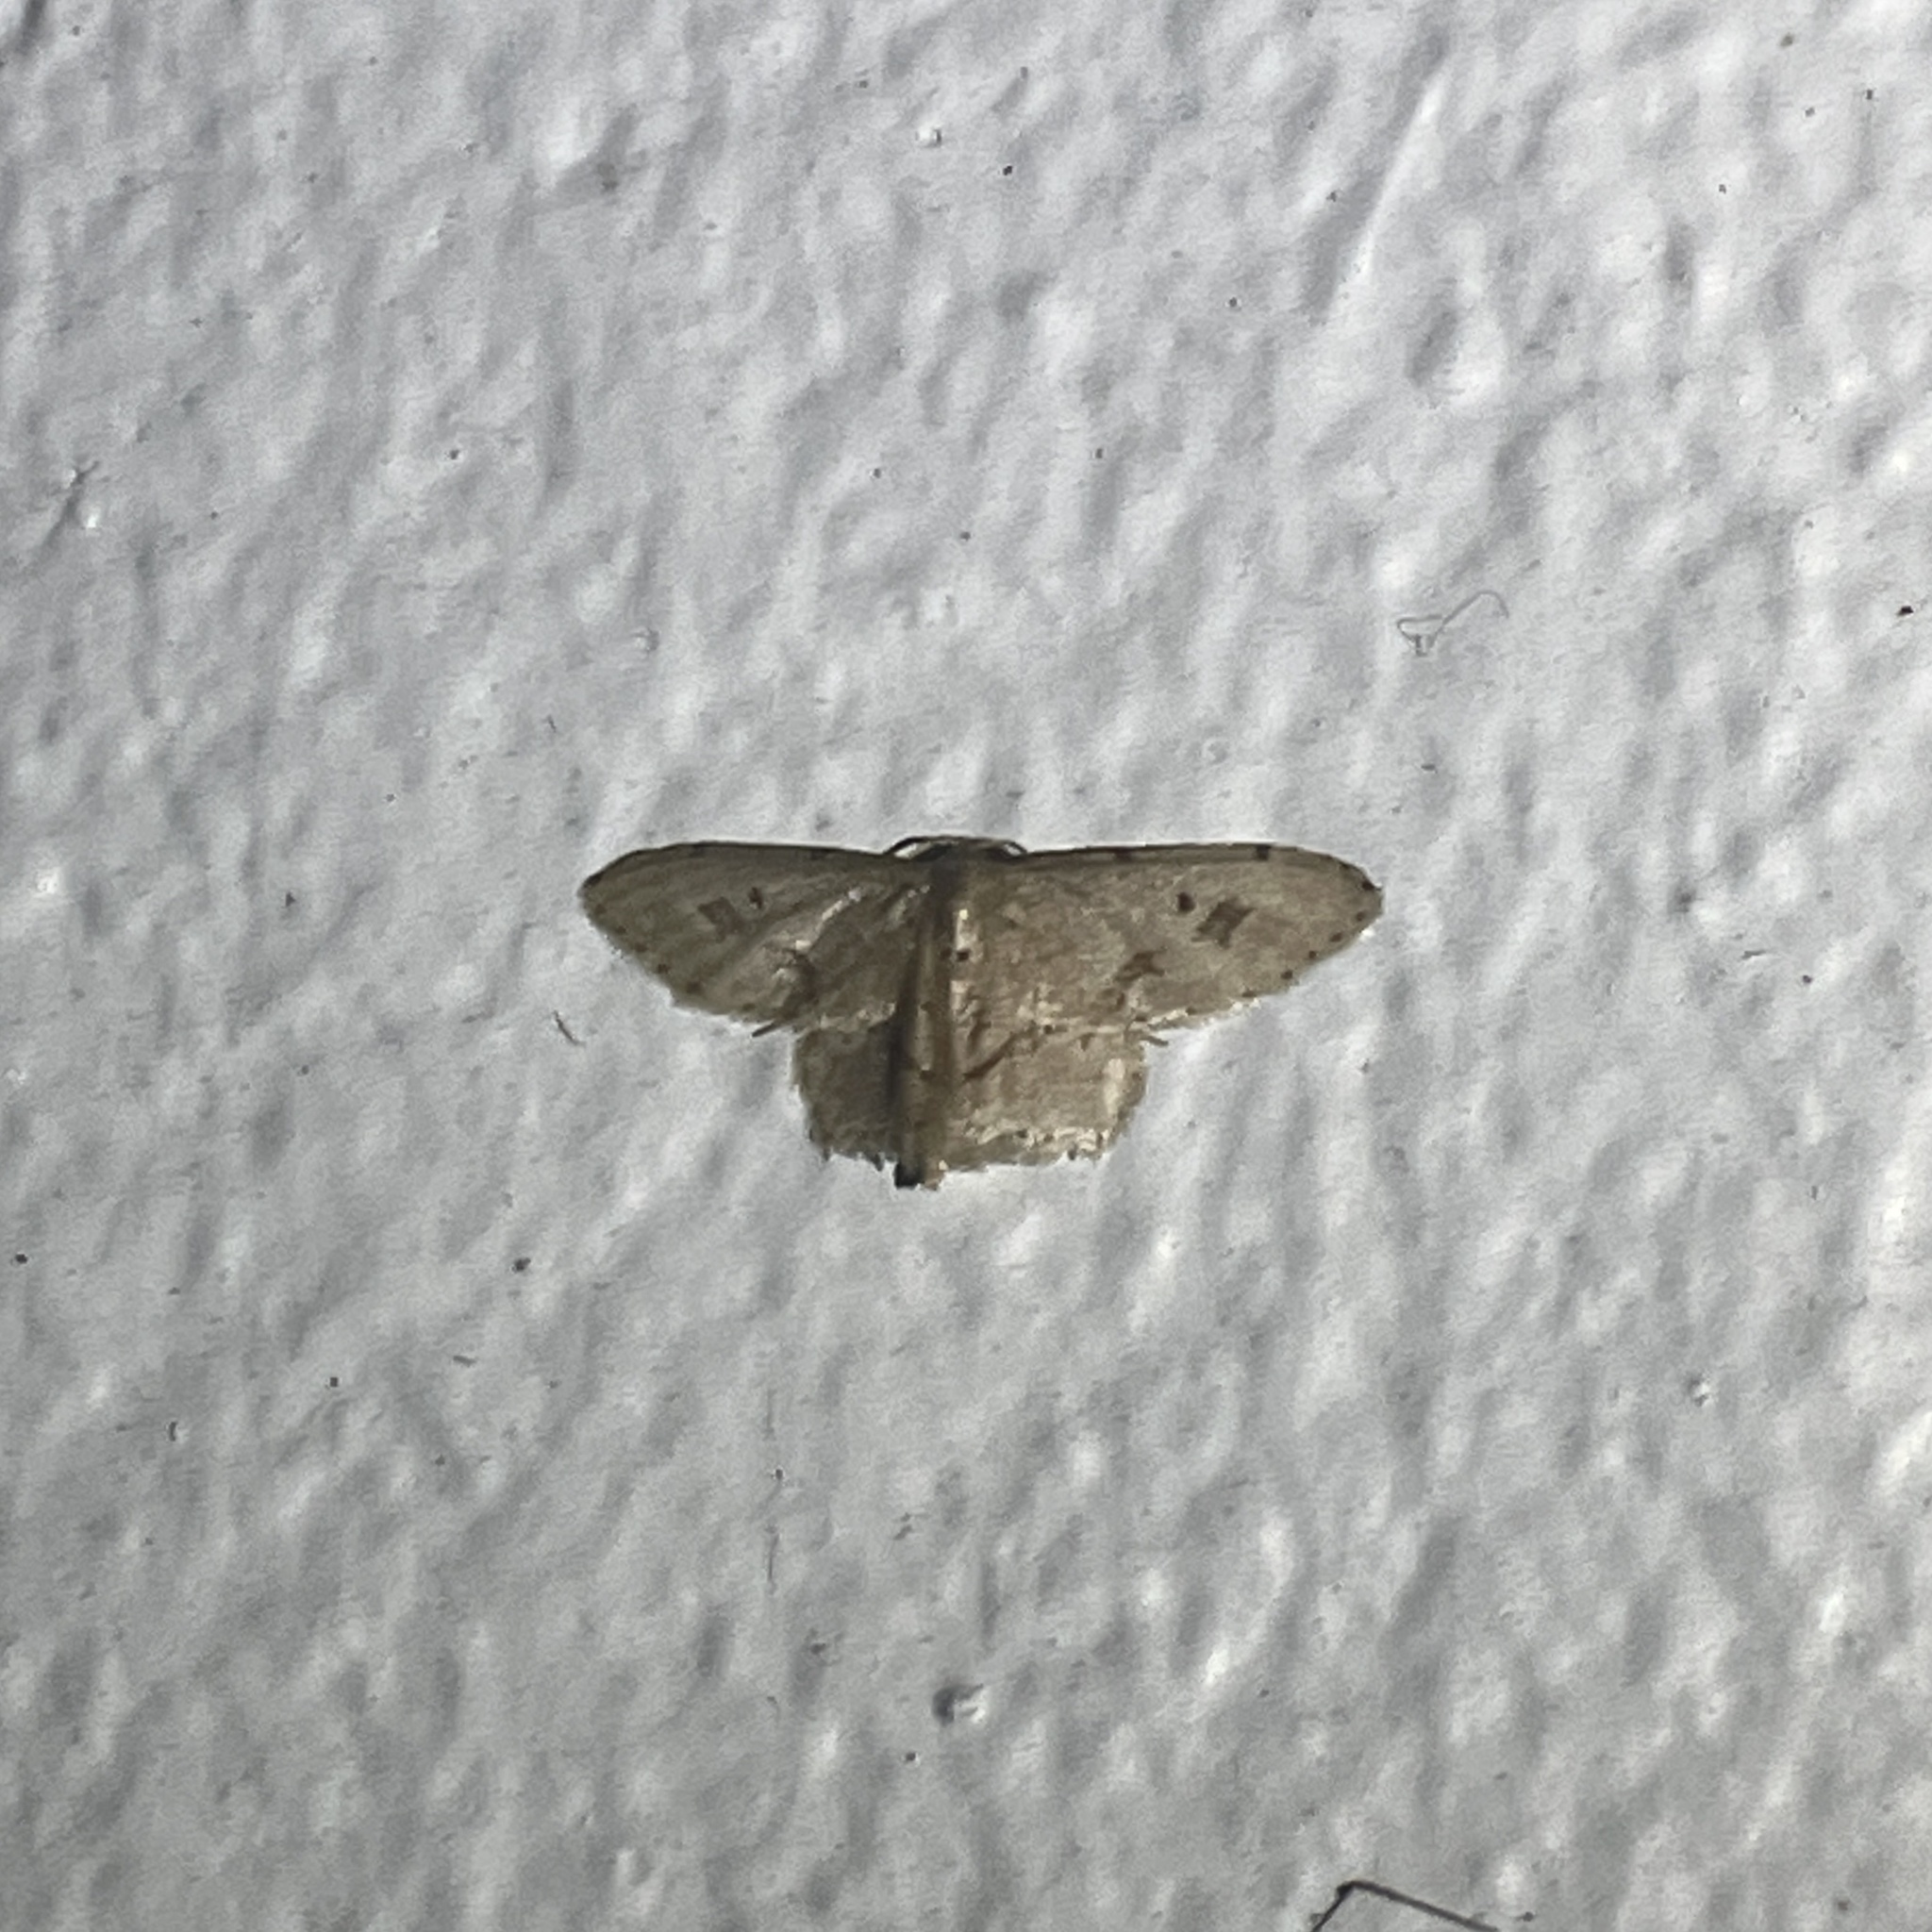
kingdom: Animalia
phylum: Arthropoda
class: Insecta
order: Lepidoptera
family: Geometridae
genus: Idaea
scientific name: Idaea gospera
